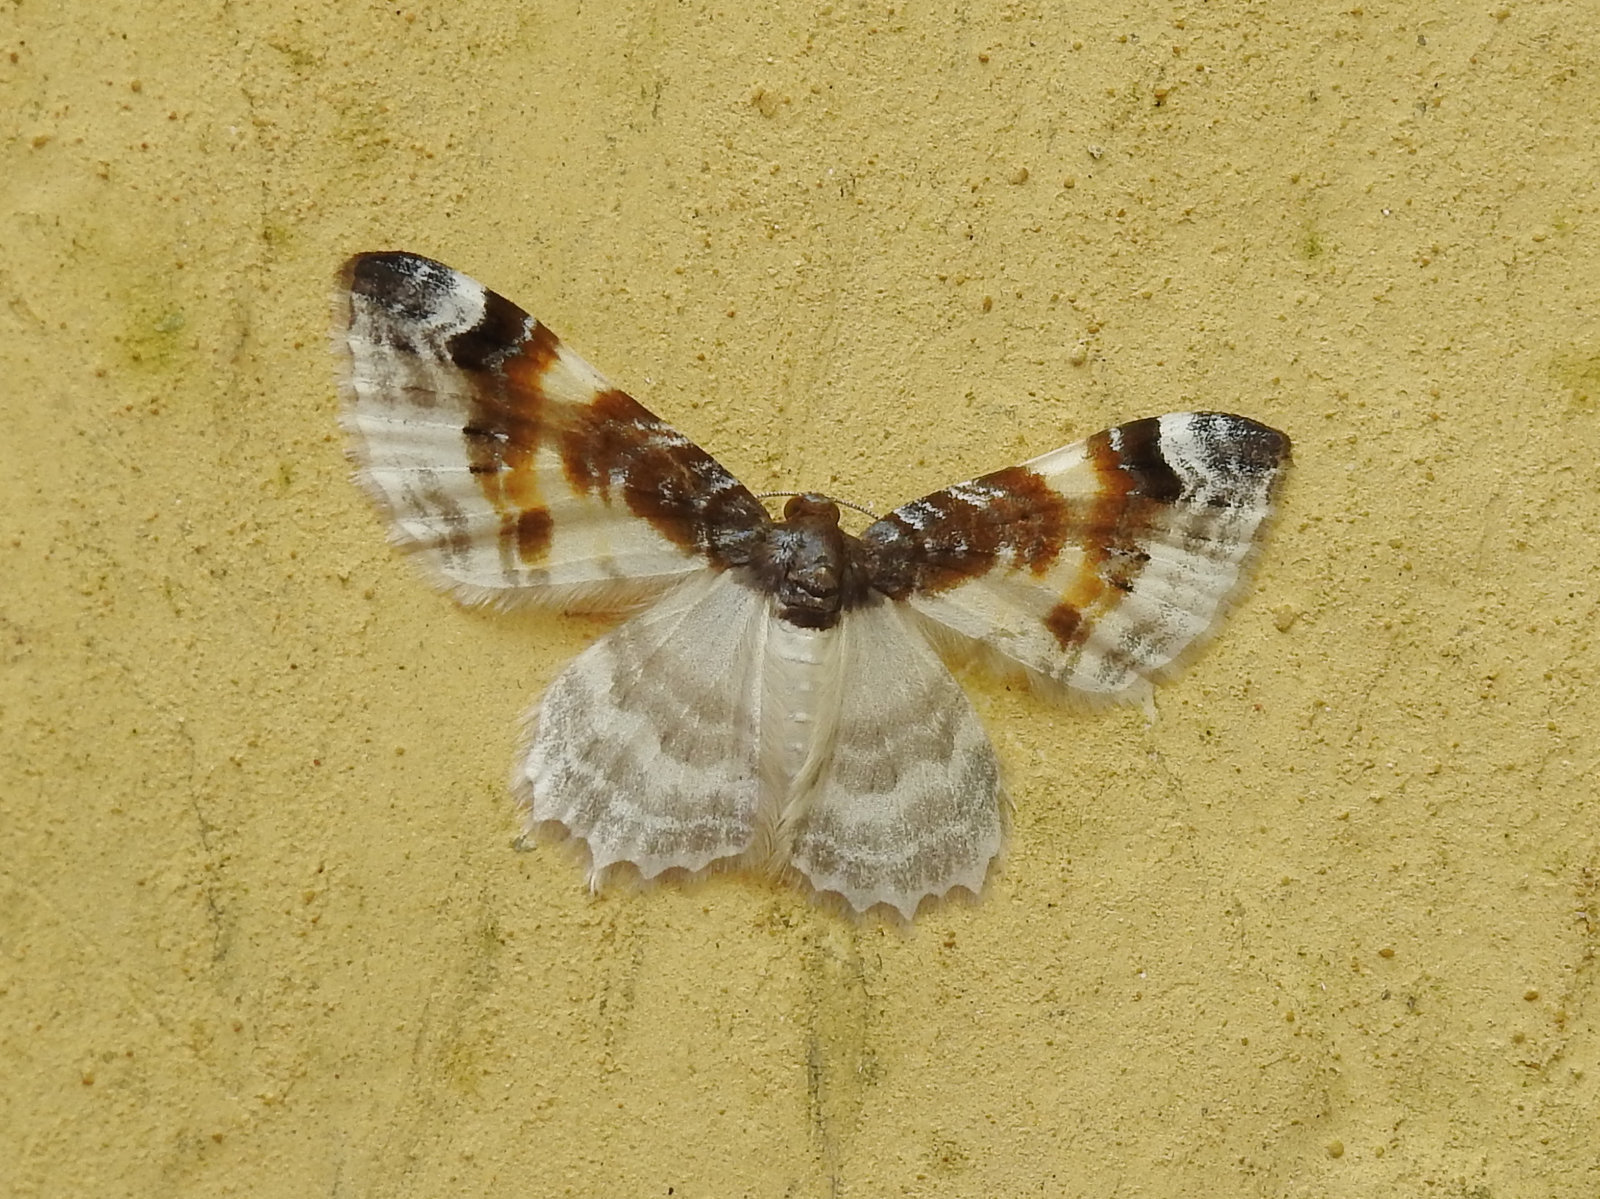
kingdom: Animalia
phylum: Arthropoda
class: Insecta
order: Lepidoptera
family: Geometridae
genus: Agnibesa
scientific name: Agnibesa plumbeolineata
